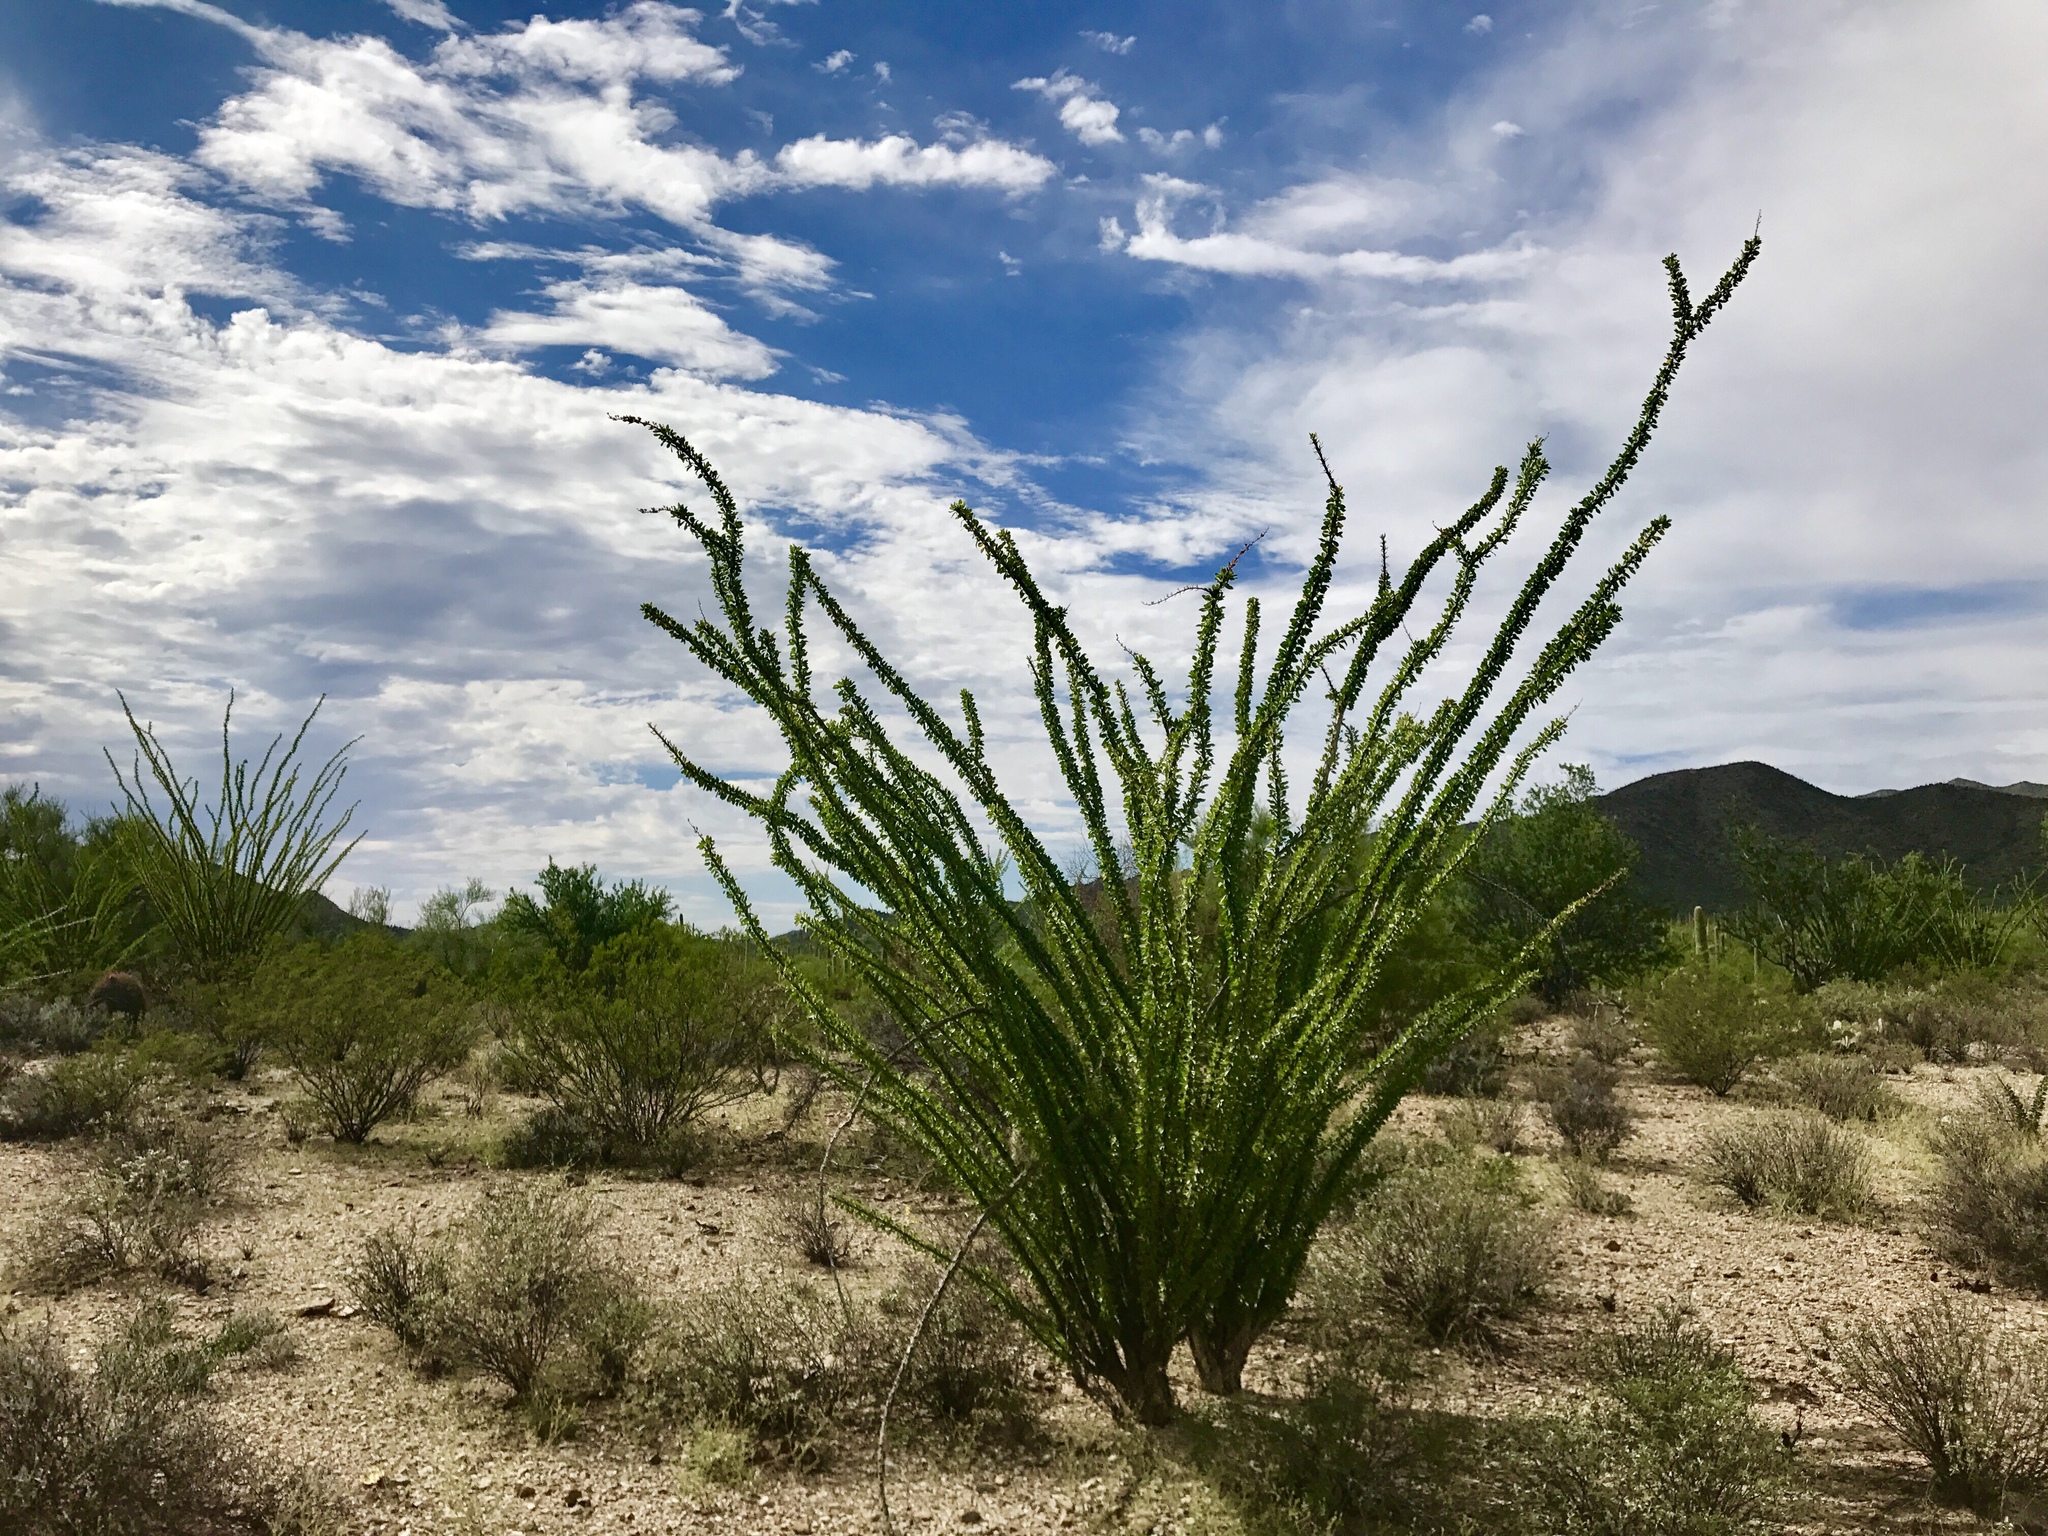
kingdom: Plantae
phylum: Tracheophyta
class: Magnoliopsida
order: Ericales
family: Fouquieriaceae
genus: Fouquieria
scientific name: Fouquieria splendens
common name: Vine-cactus
